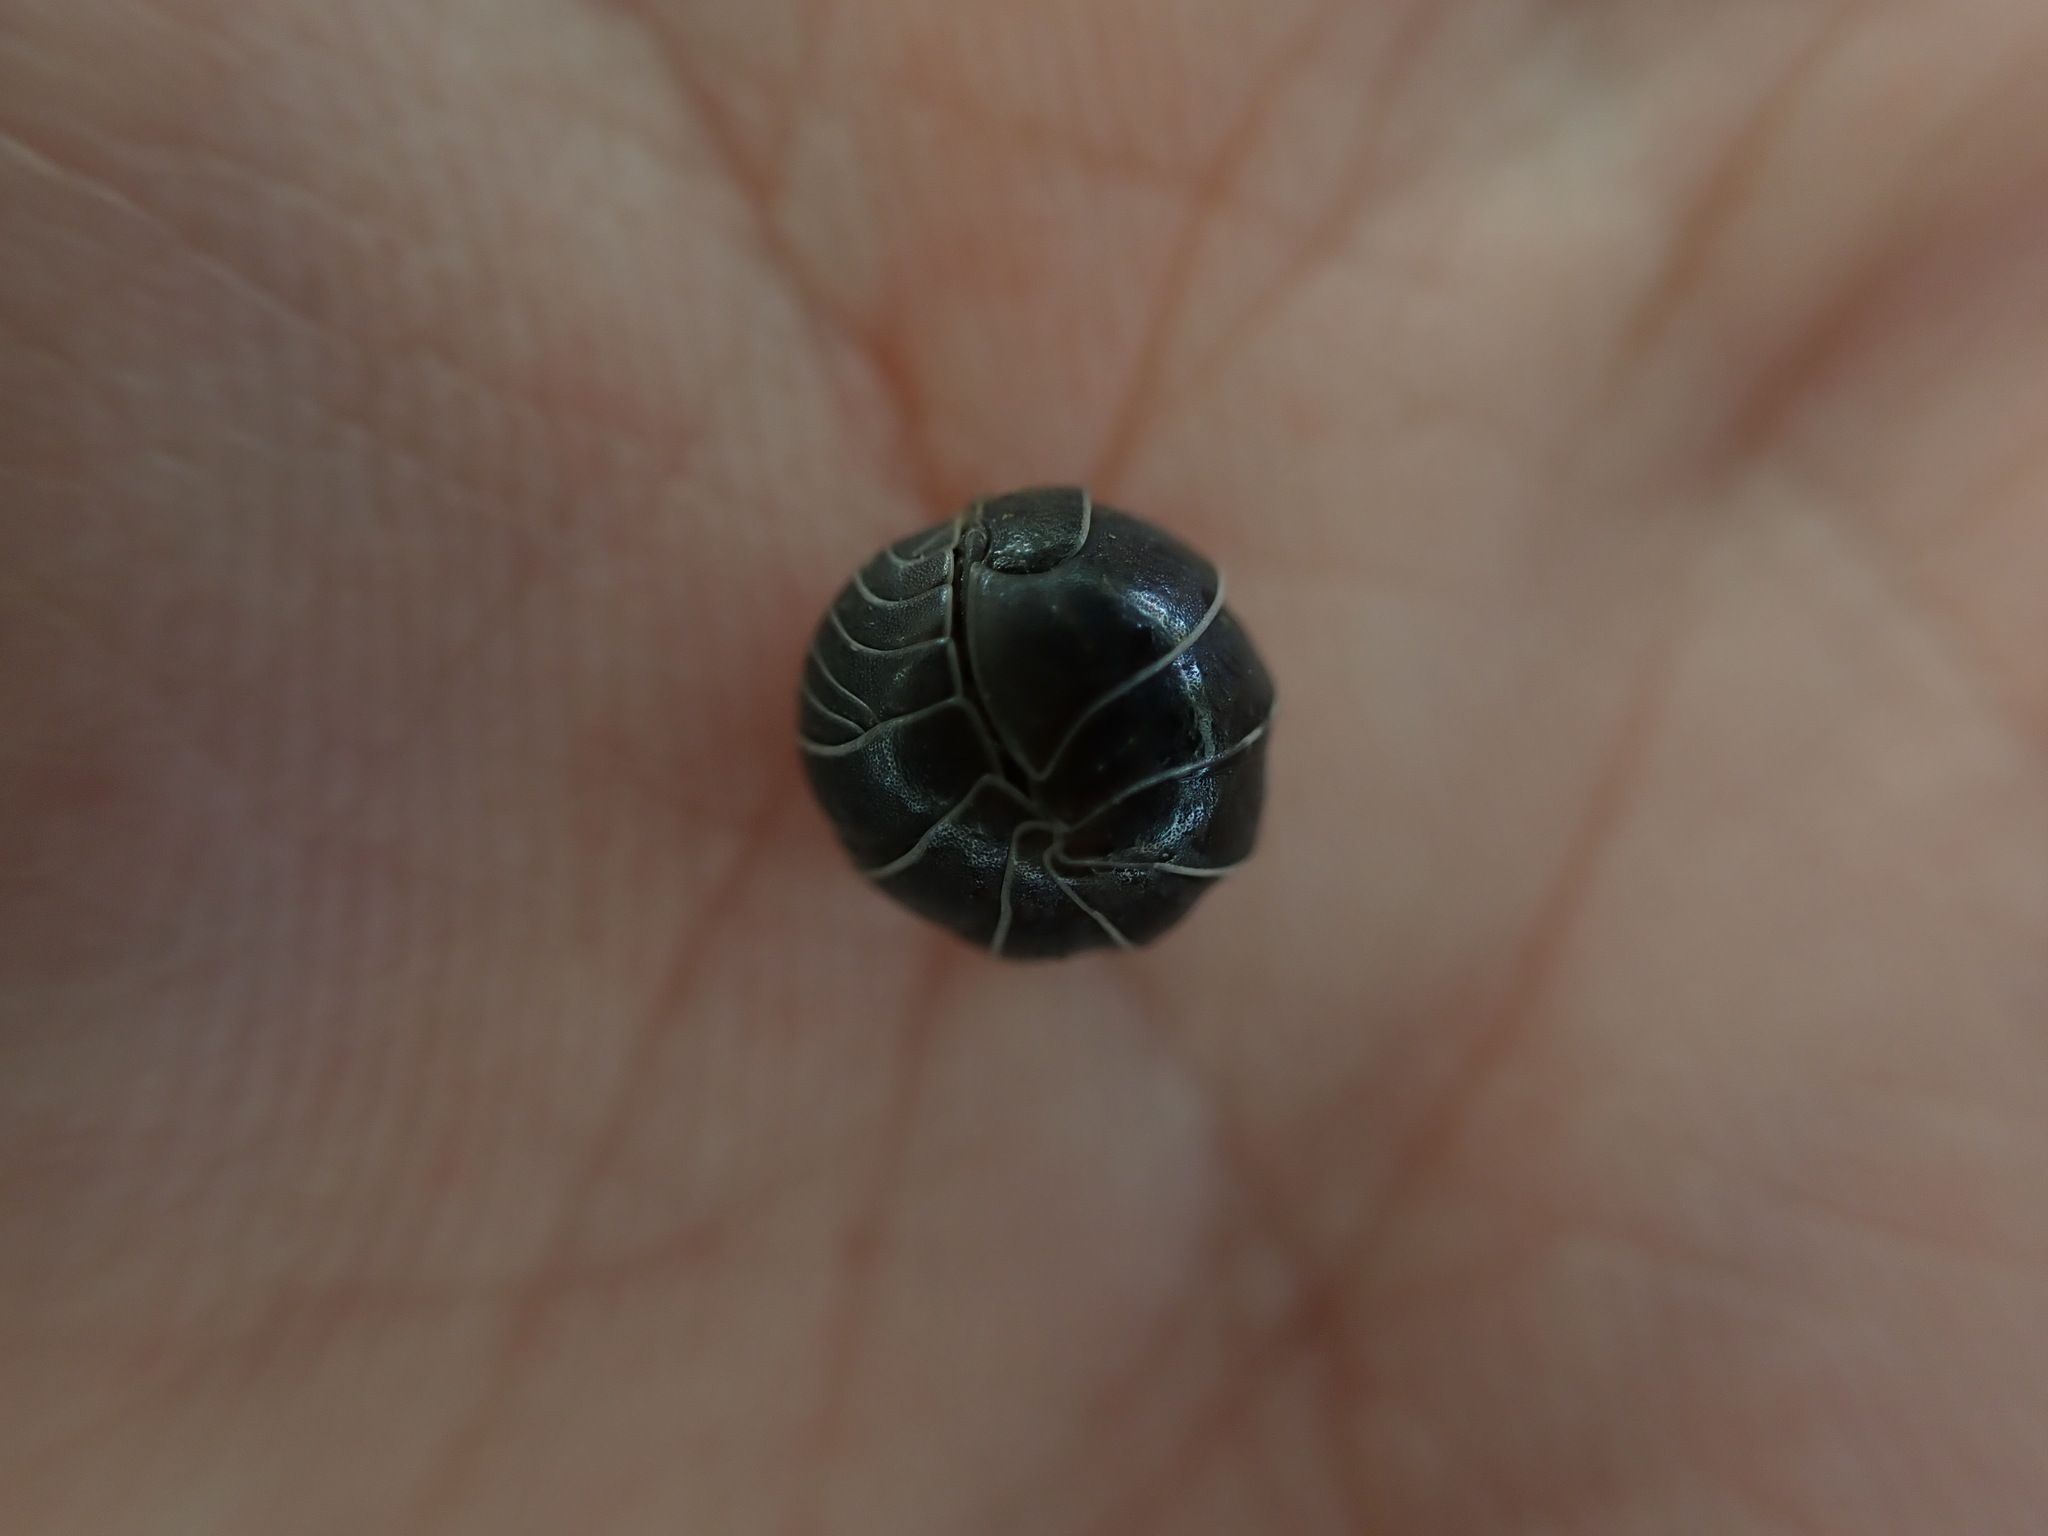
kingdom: Animalia
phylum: Arthropoda
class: Malacostraca
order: Isopoda
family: Armadillidiidae
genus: Armadillidium
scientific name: Armadillidium vulgare
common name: Common pill woodlouse
